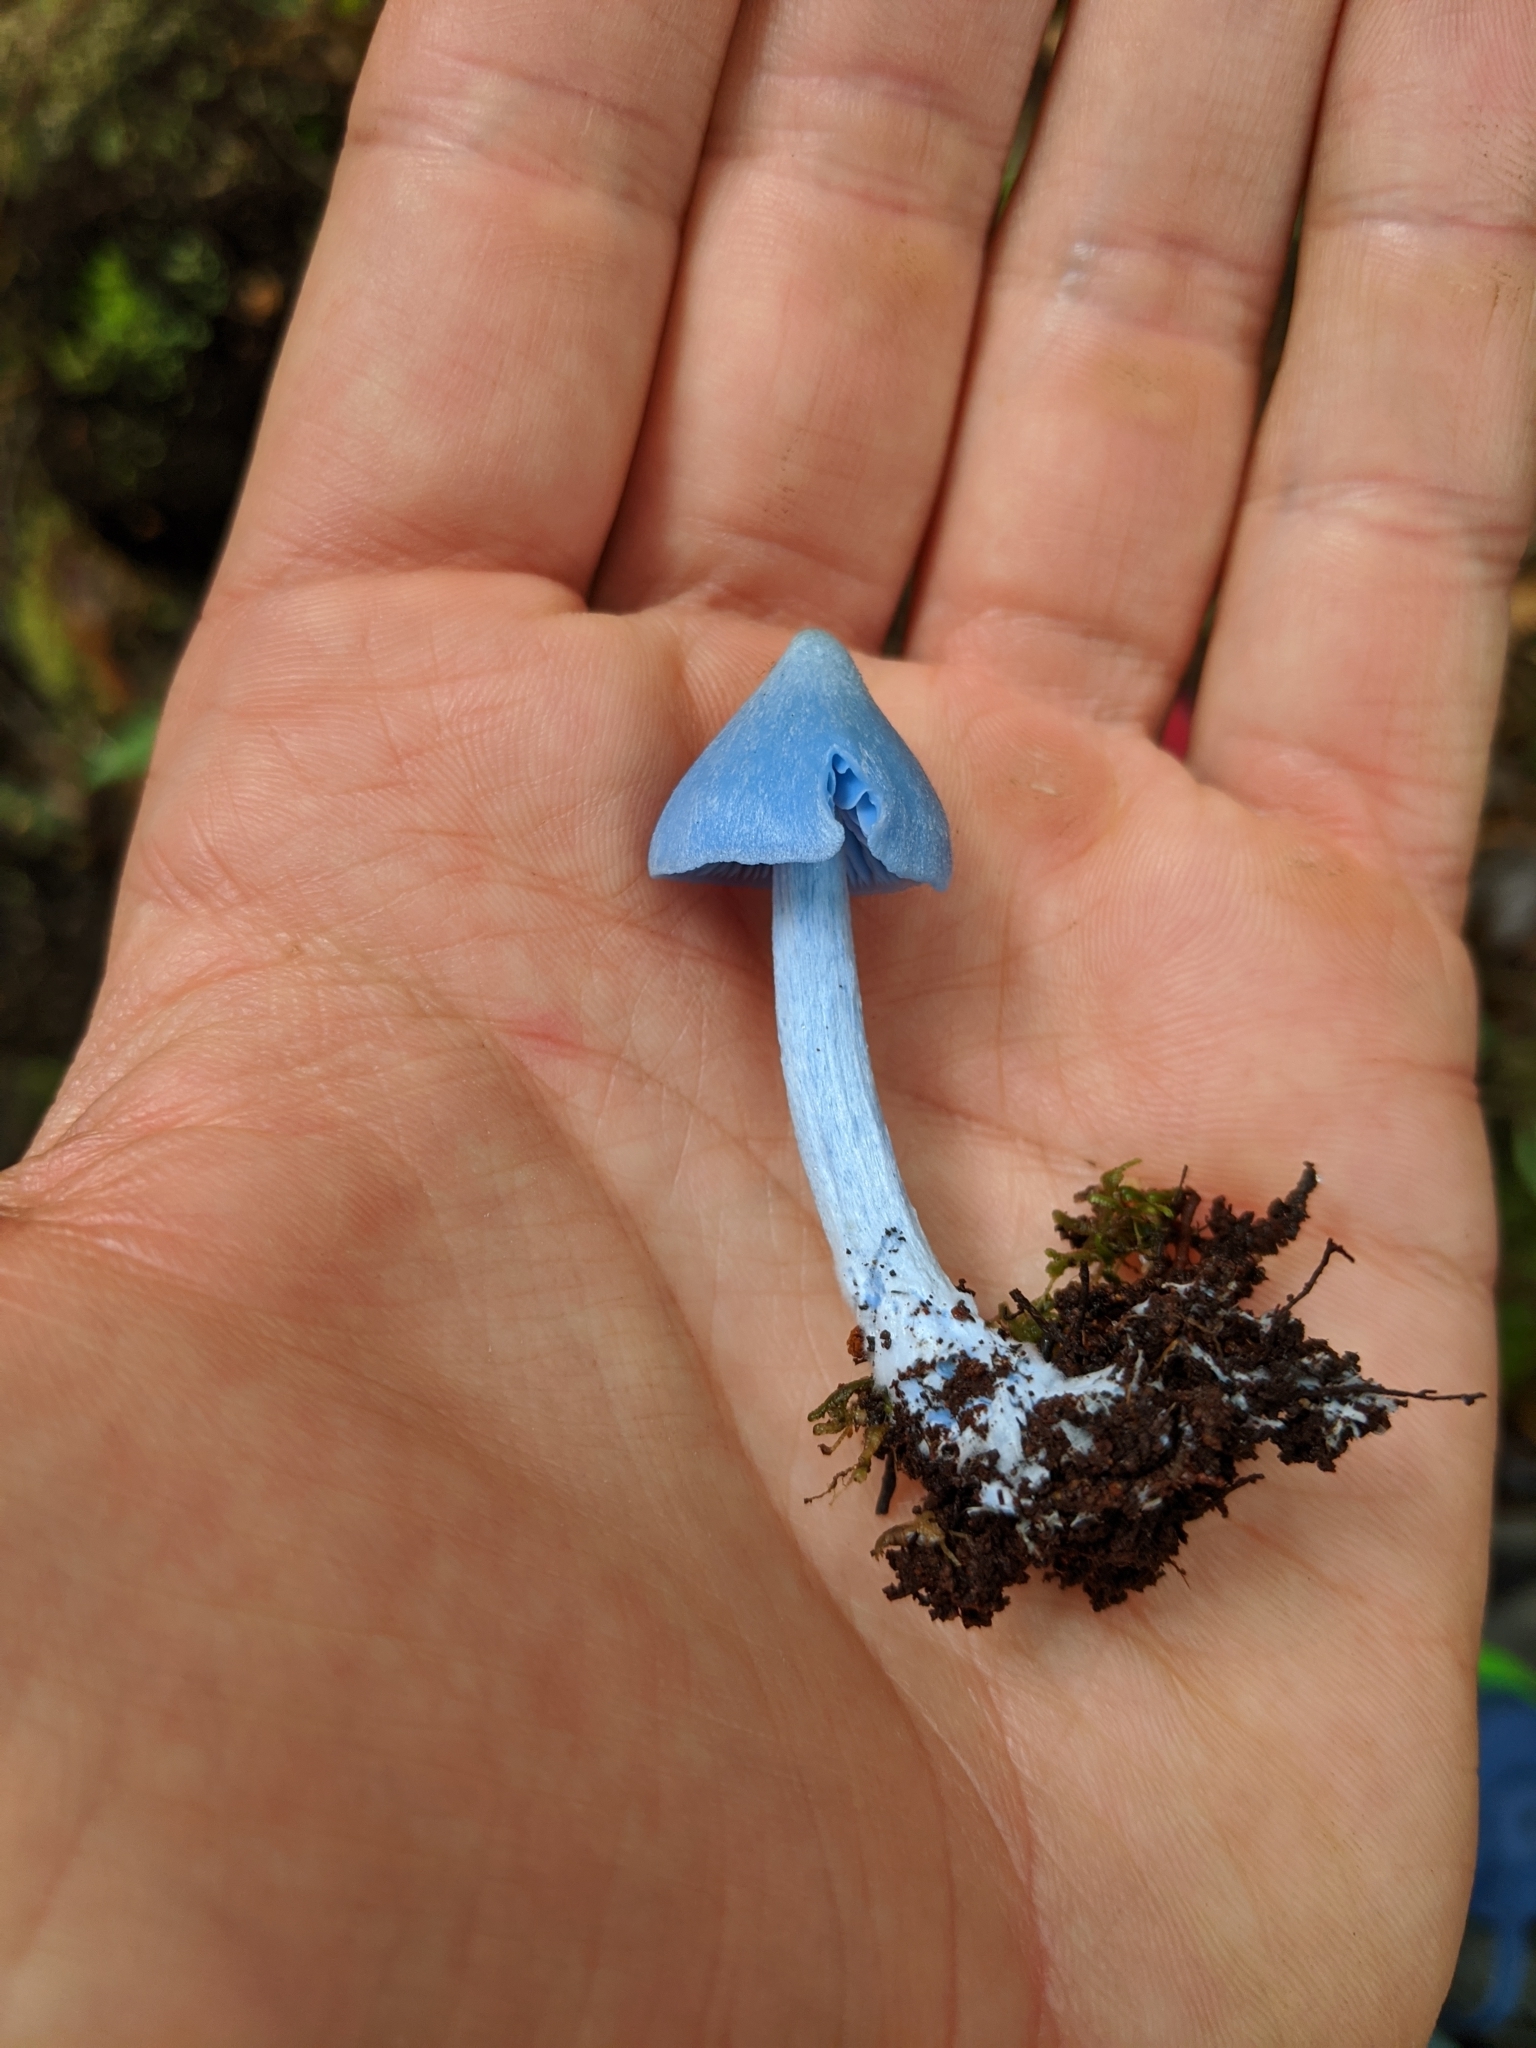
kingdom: Fungi
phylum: Basidiomycota
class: Agaricomycetes
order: Agaricales
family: Entolomataceae
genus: Entoloma
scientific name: Entoloma hochstetteri
